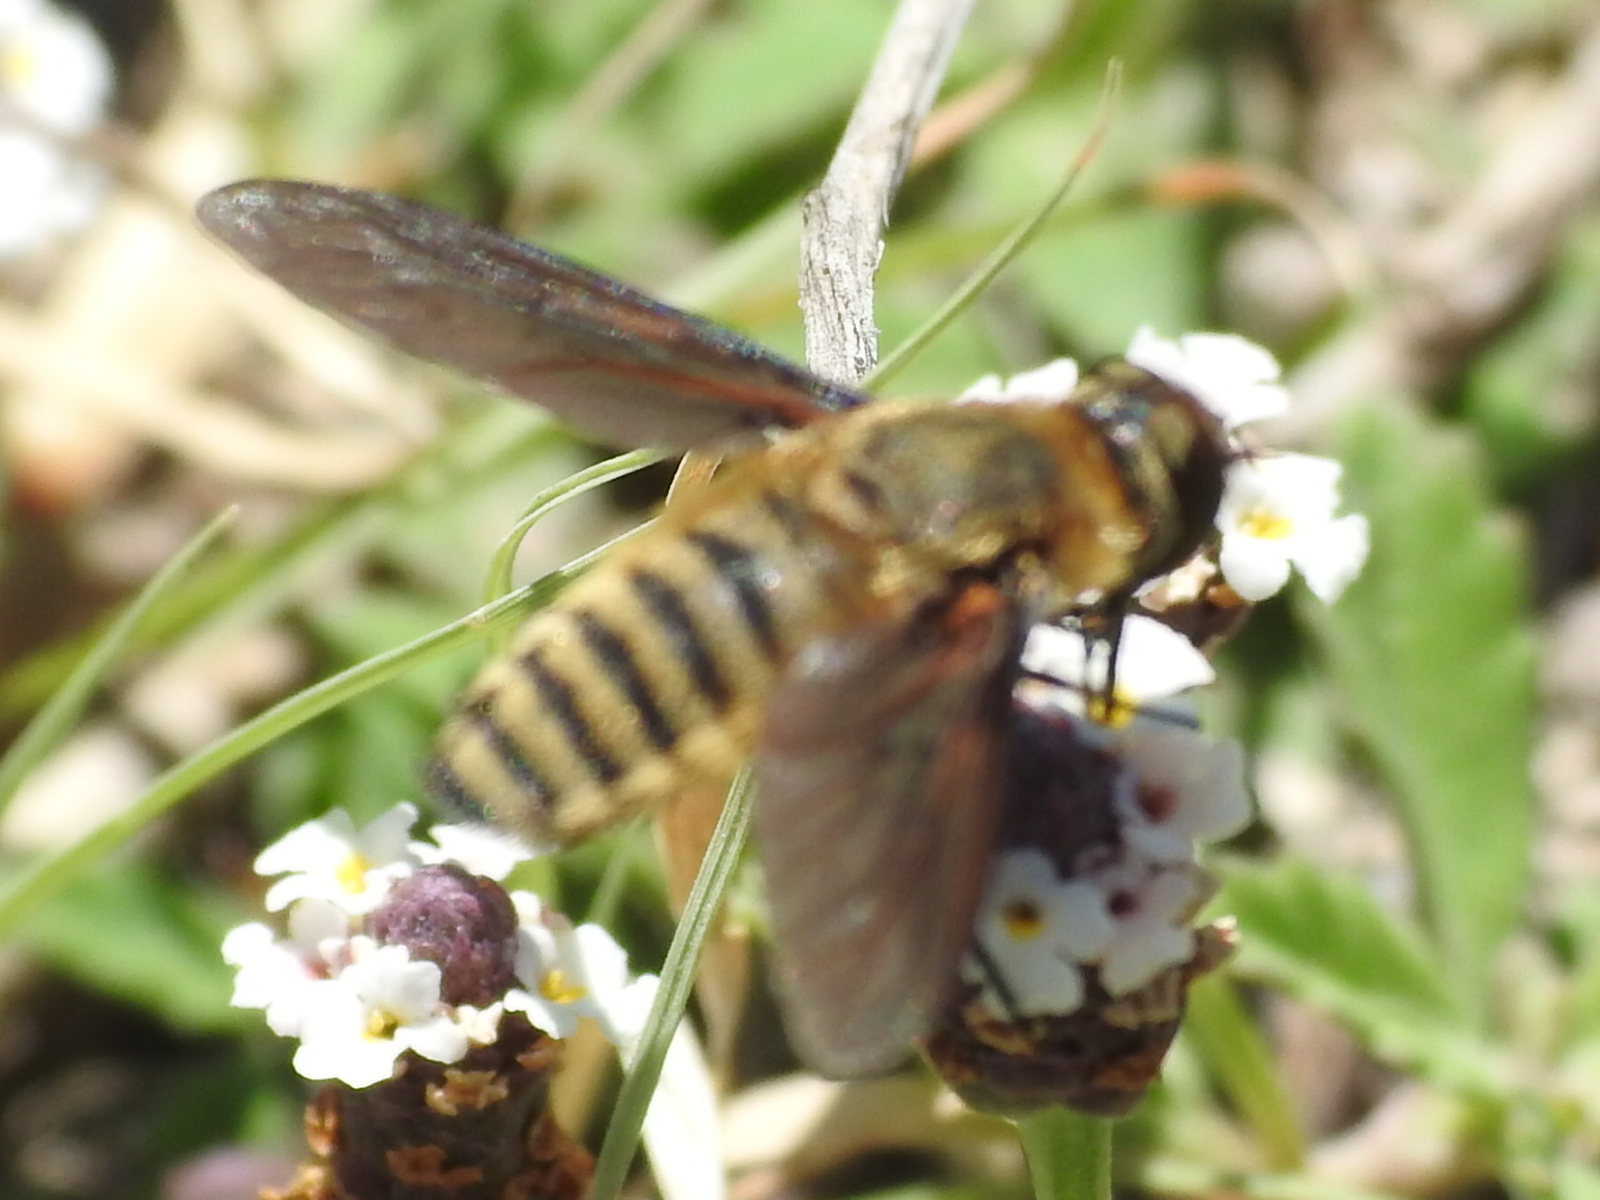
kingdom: Animalia
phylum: Arthropoda
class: Insecta
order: Diptera
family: Bombyliidae
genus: Poecilanthrax
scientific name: Poecilanthrax lucifer
